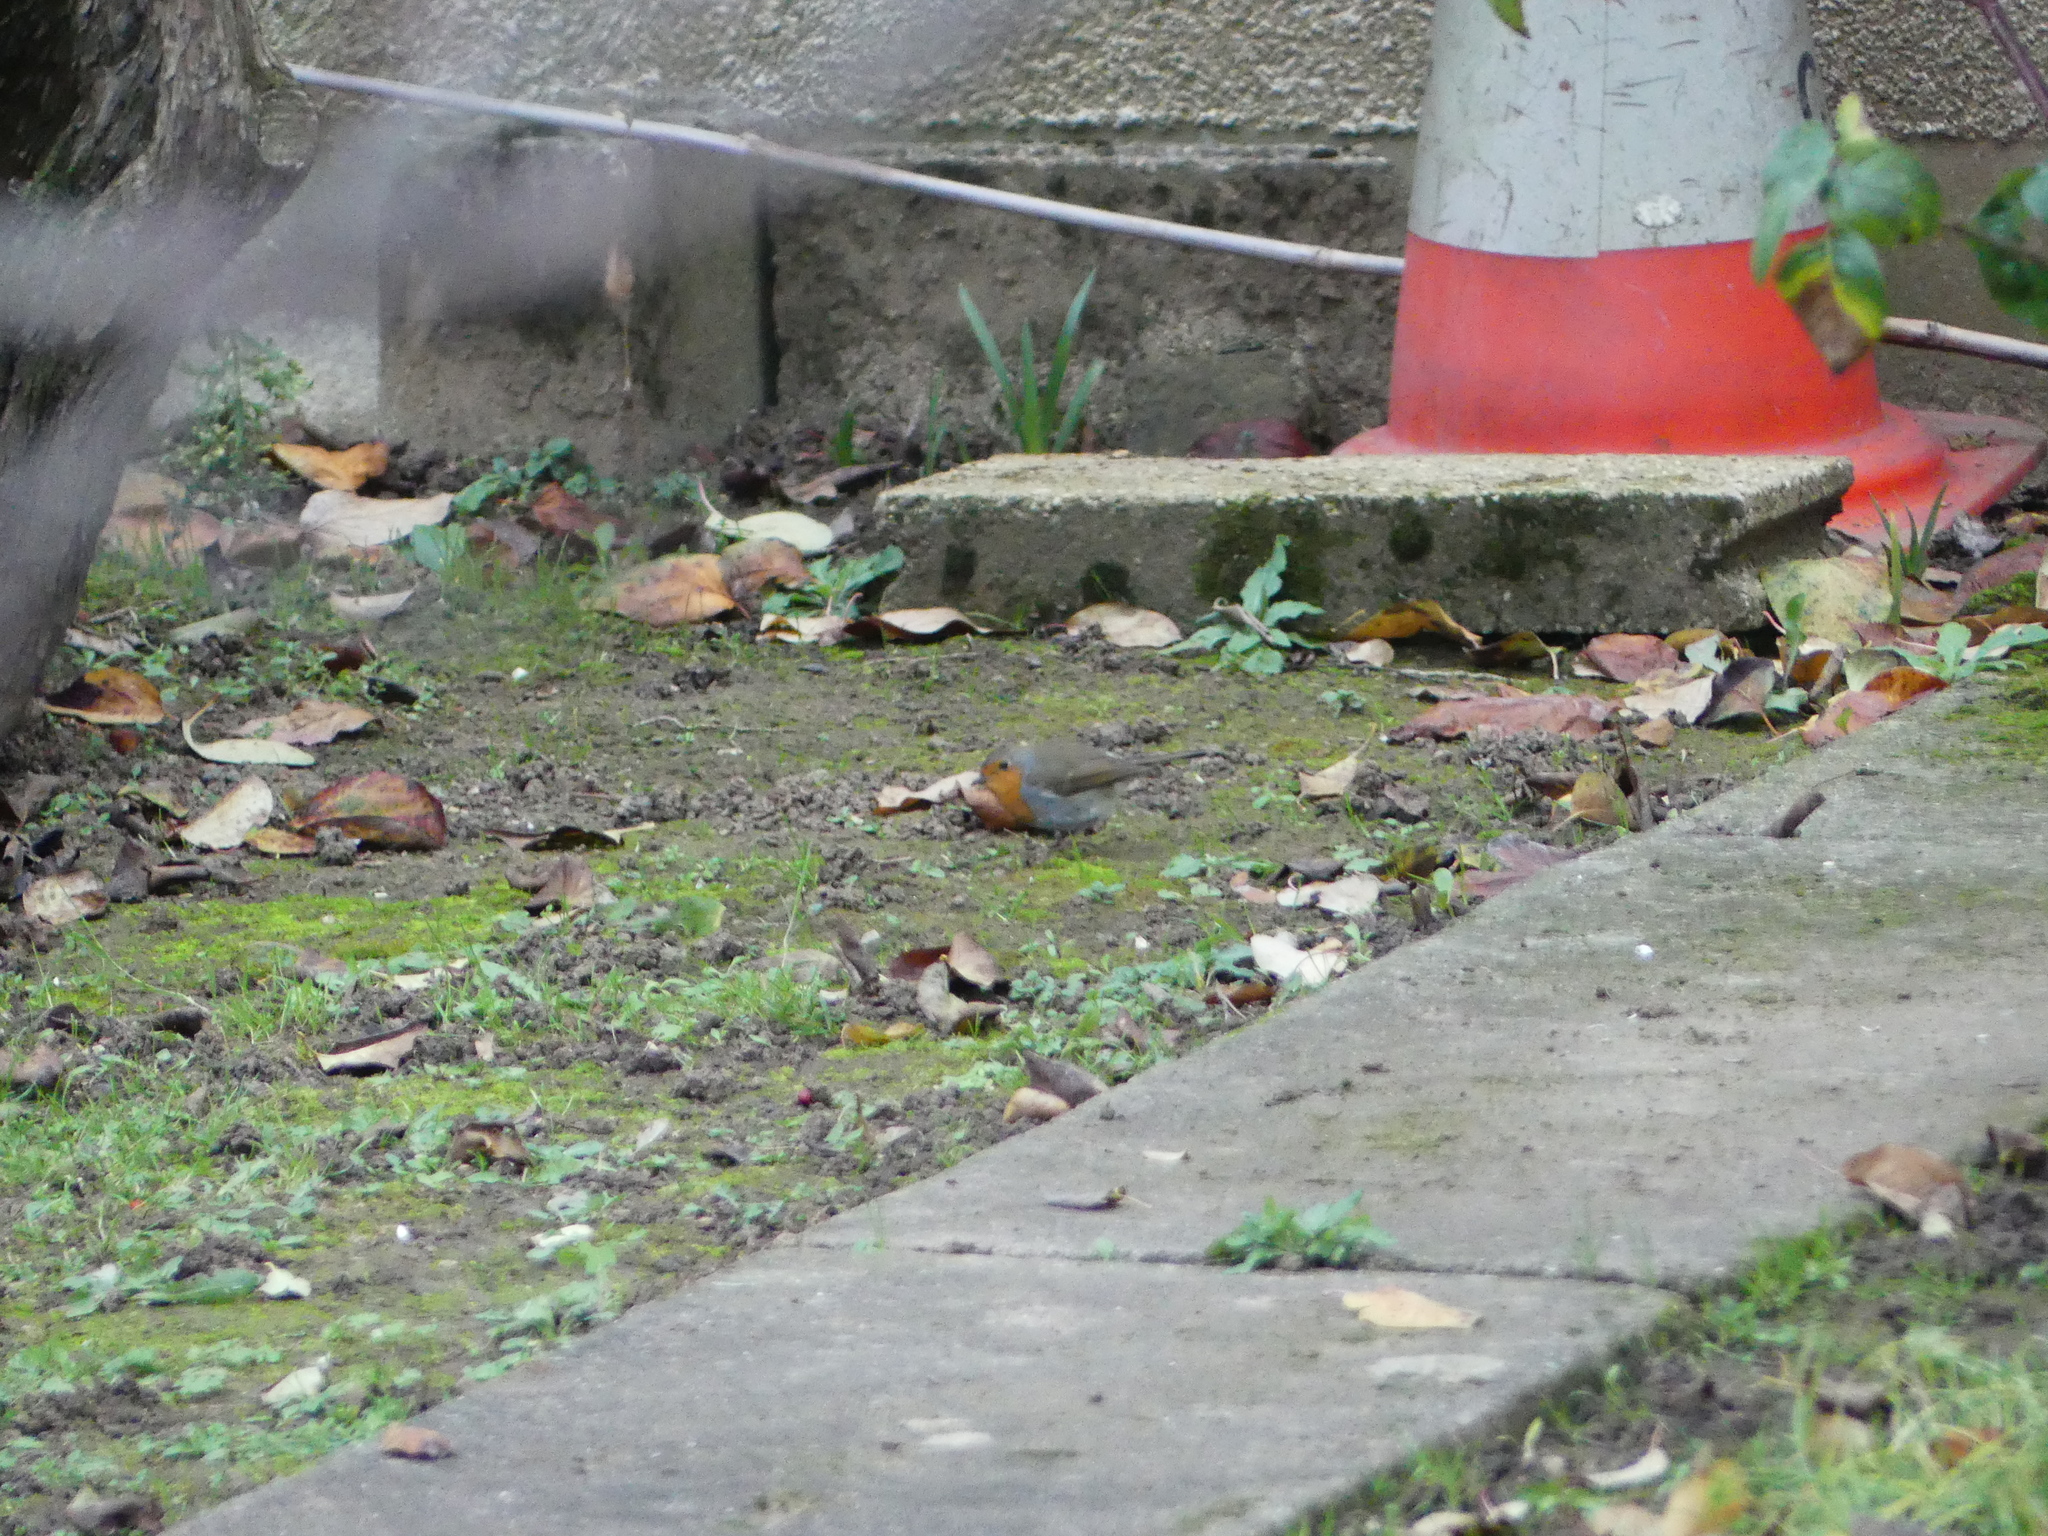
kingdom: Animalia
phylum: Chordata
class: Aves
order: Passeriformes
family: Muscicapidae
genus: Erithacus
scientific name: Erithacus rubecula
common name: European robin
